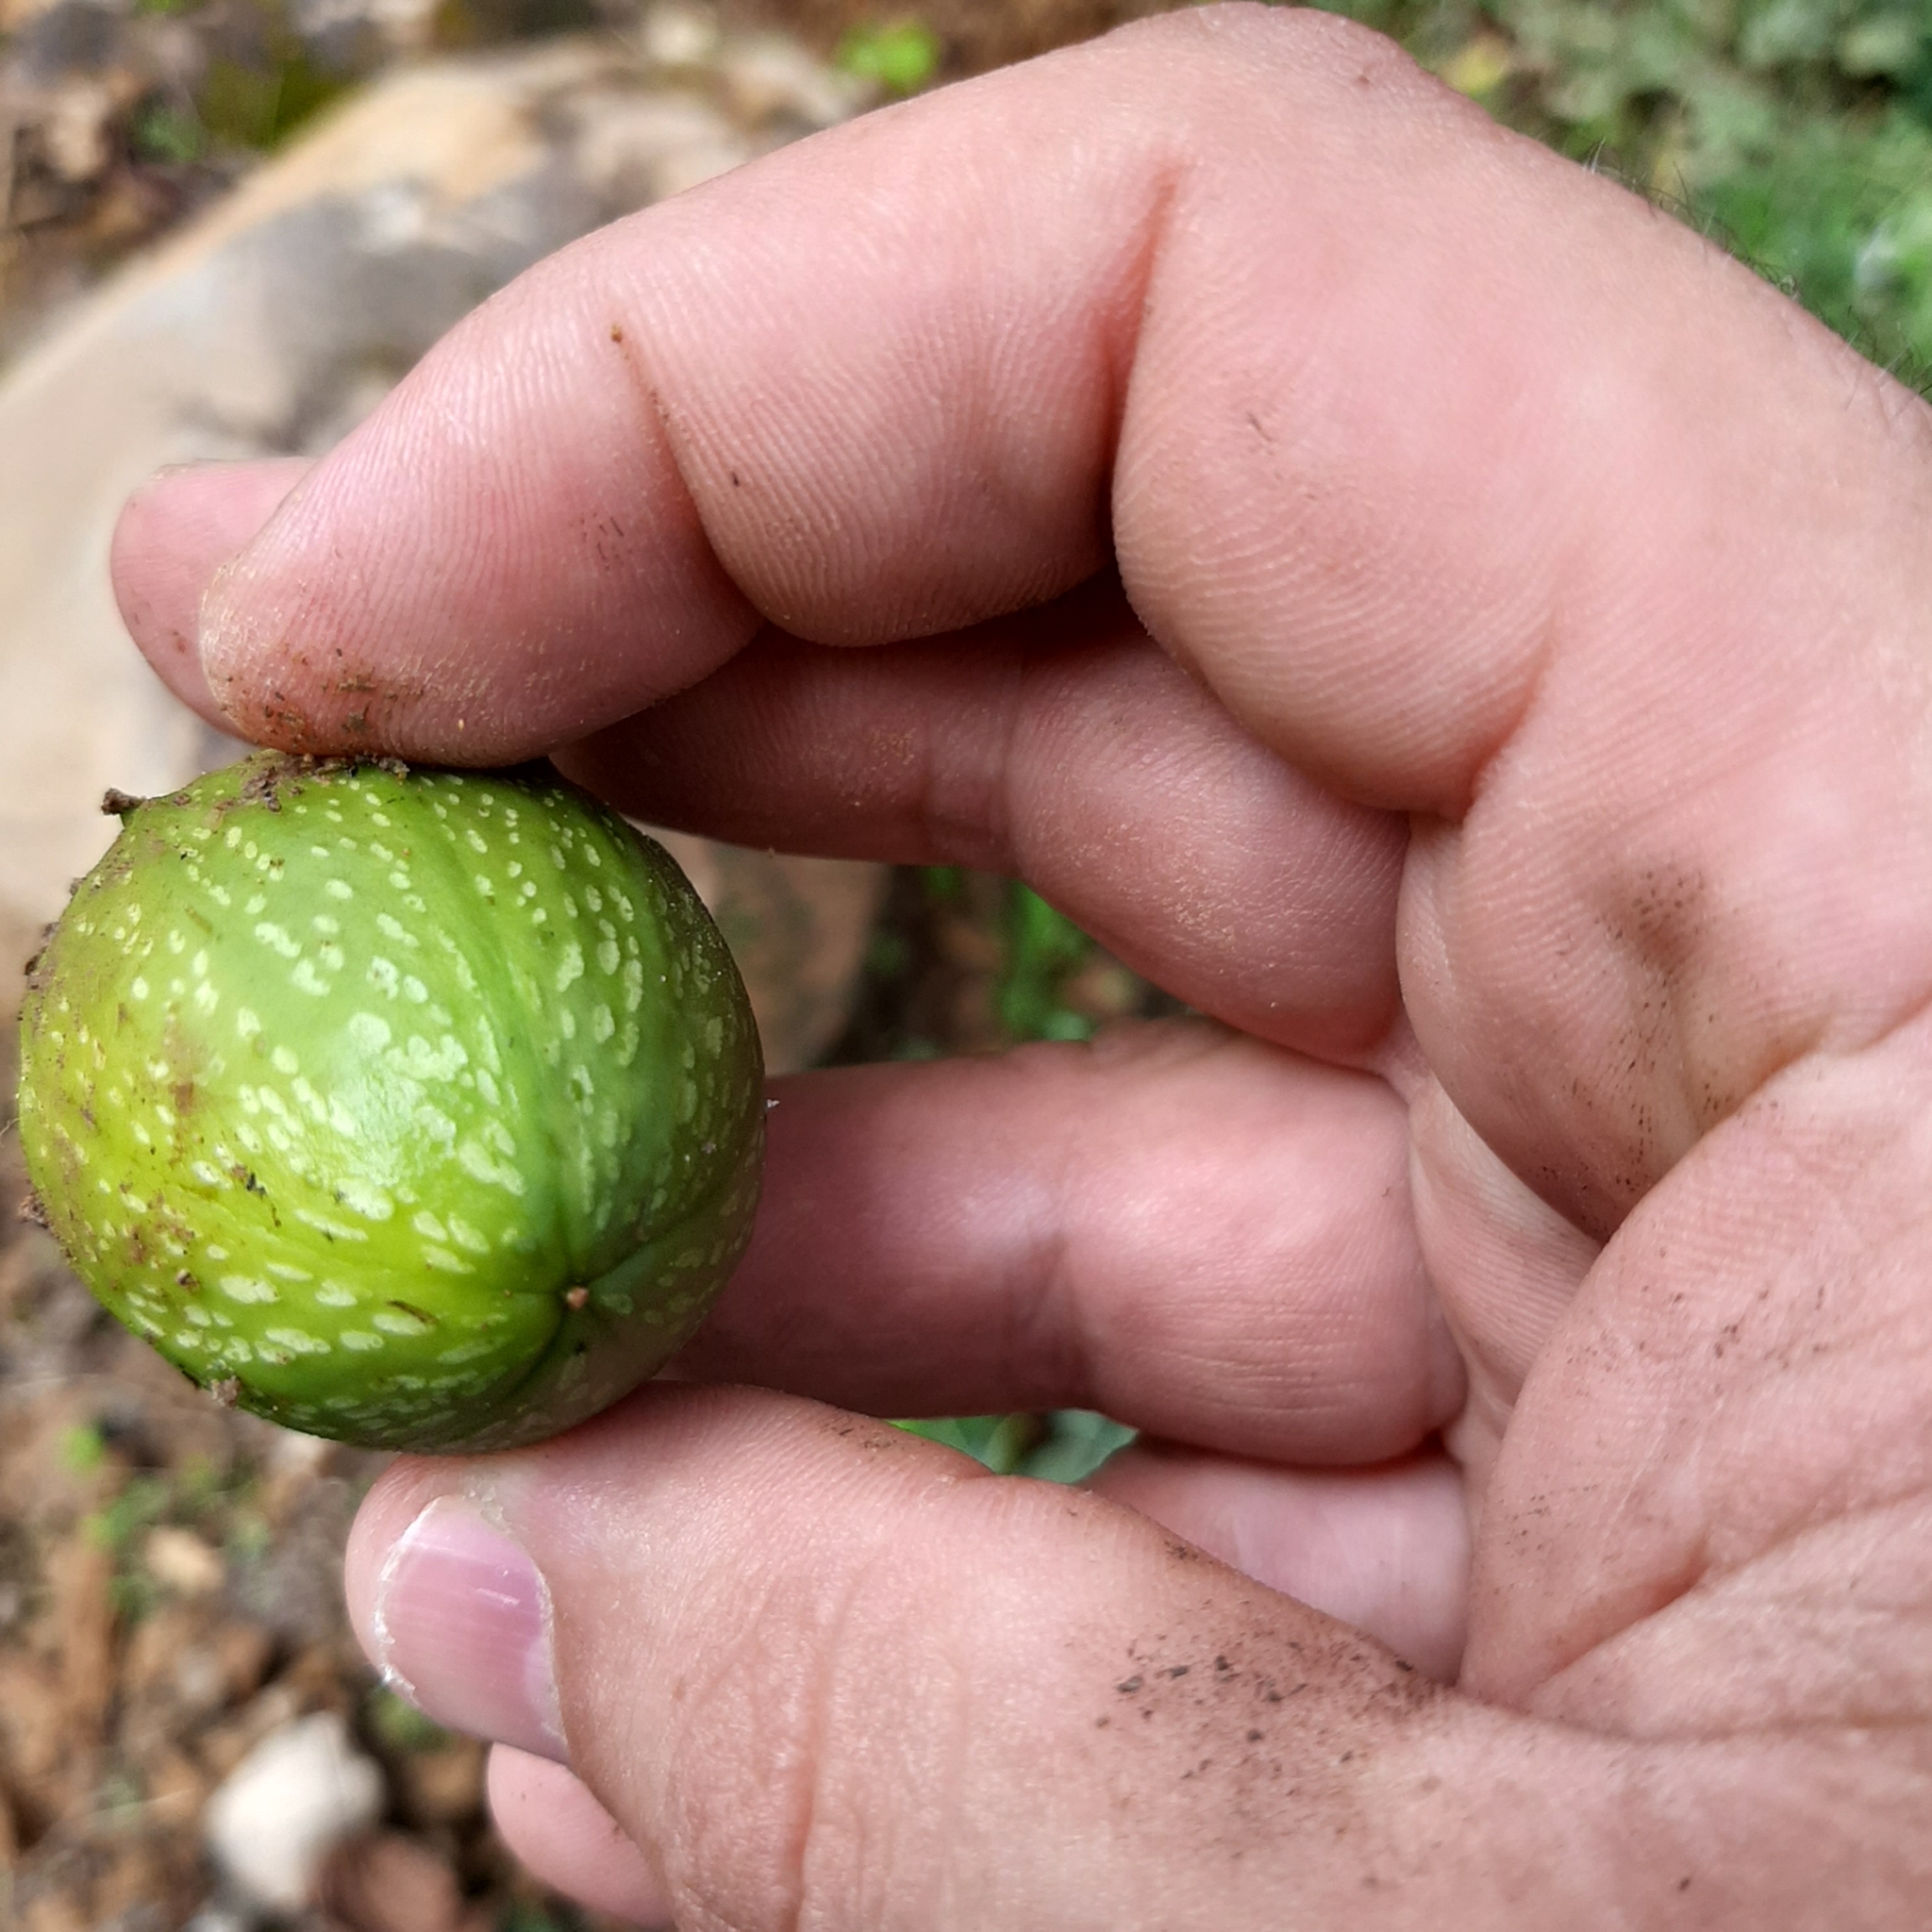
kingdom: Plantae
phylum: Tracheophyta
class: Magnoliopsida
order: Cucurbitales
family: Cucurbitaceae
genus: Frantzia
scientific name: Frantzia tacaco
